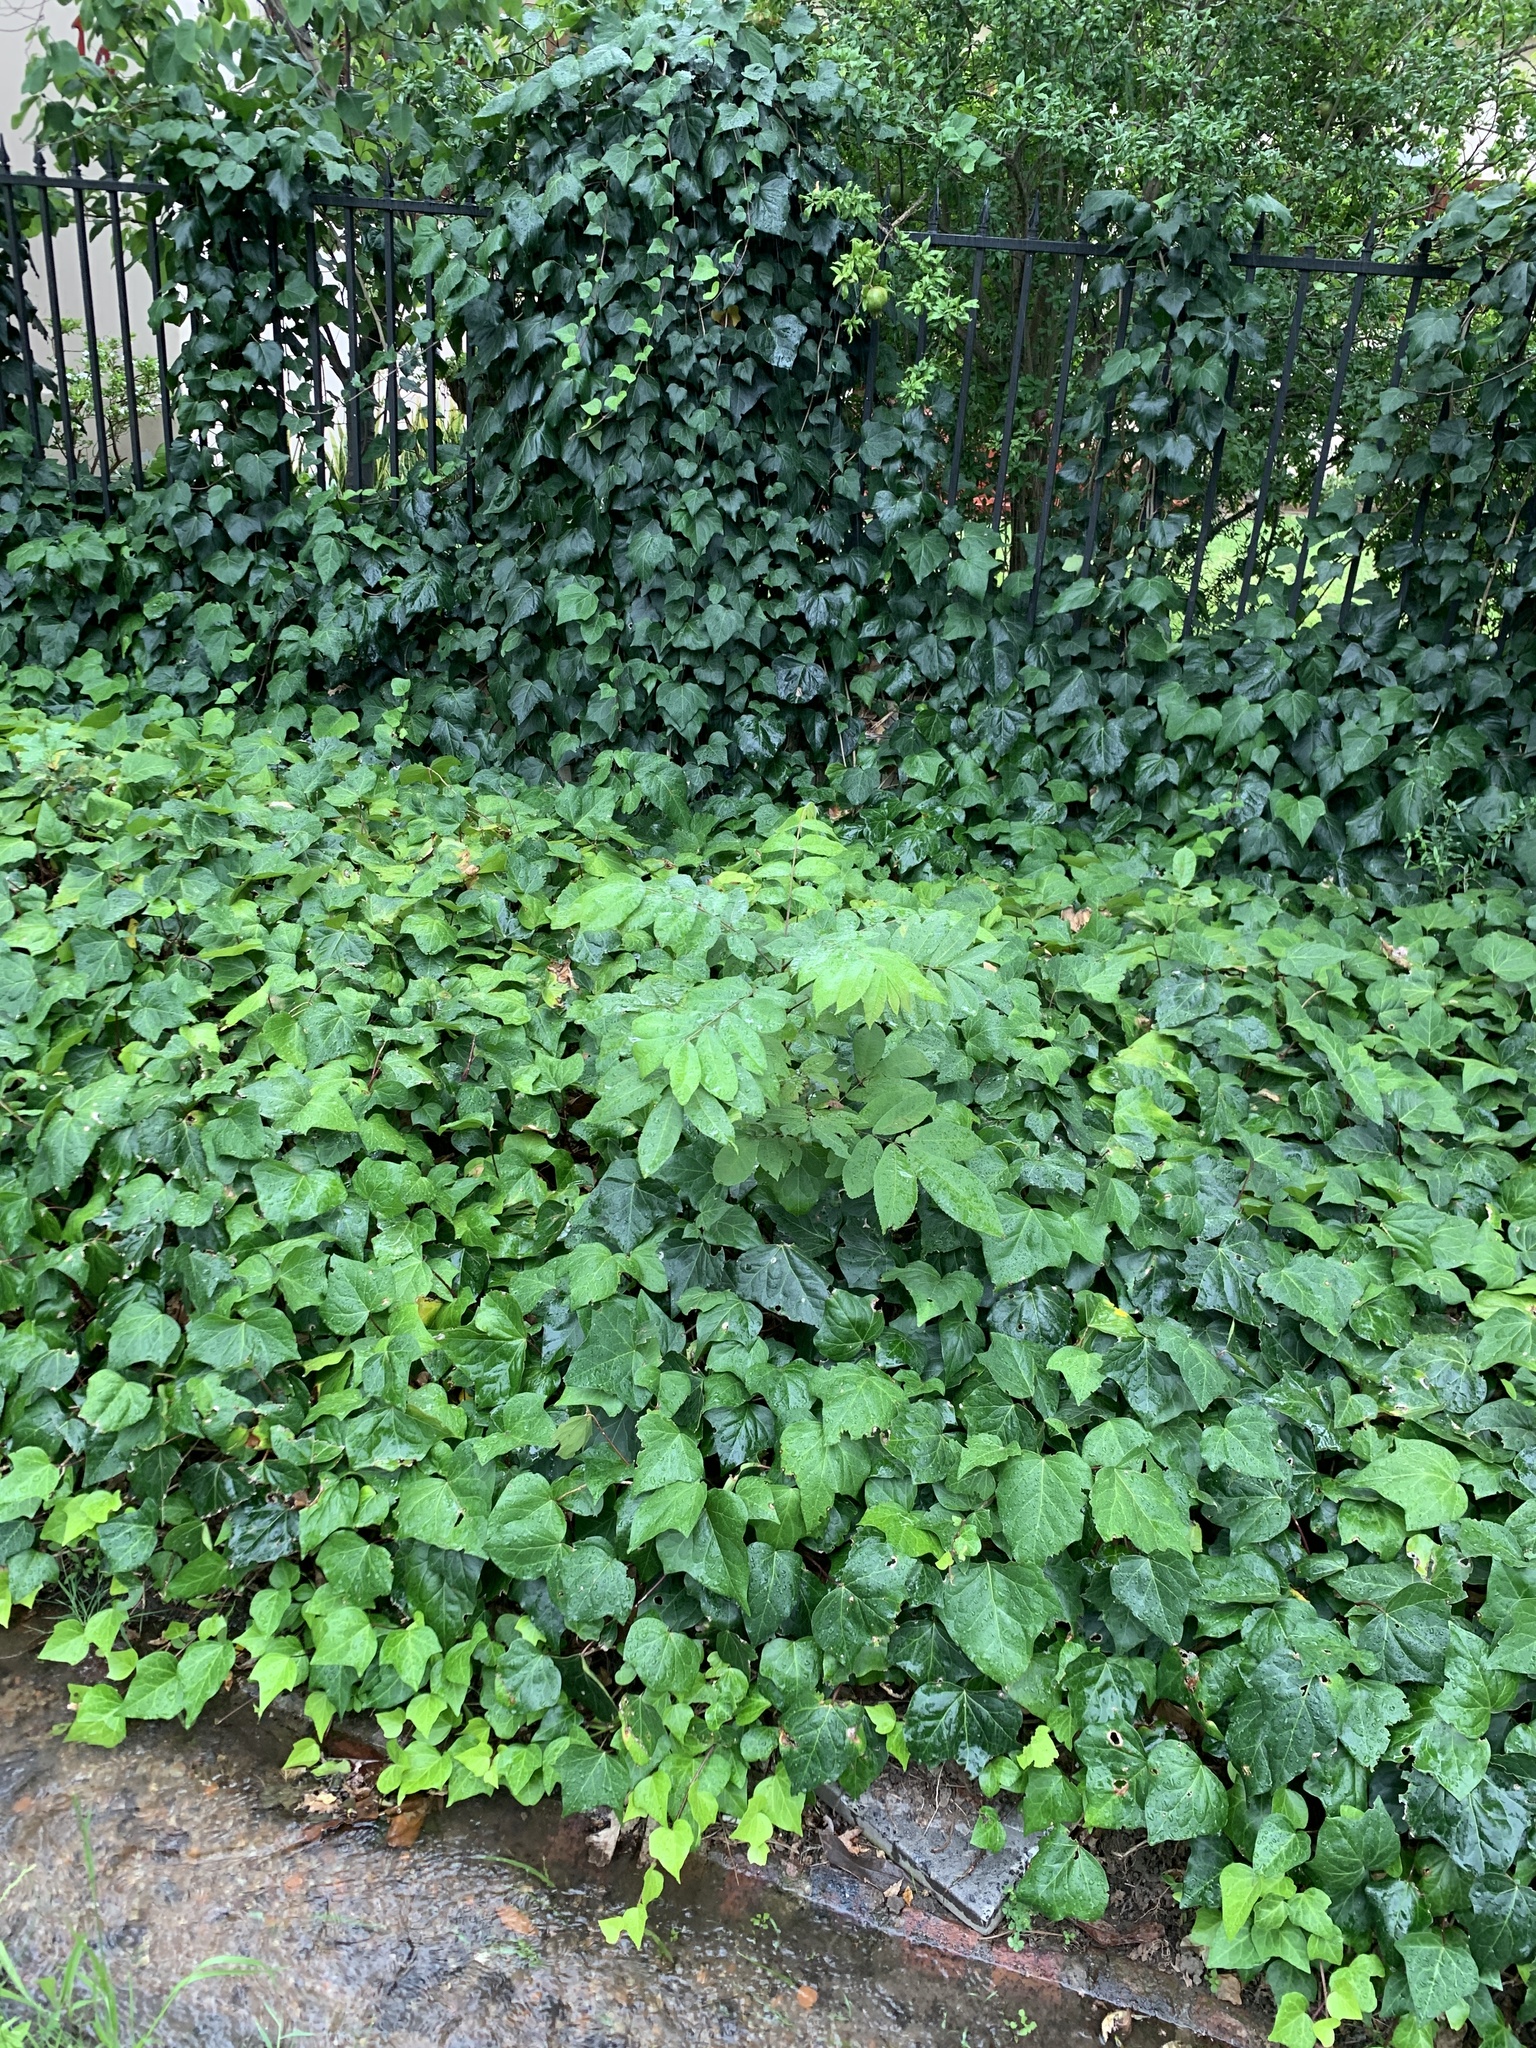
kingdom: Plantae
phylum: Tracheophyta
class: Magnoliopsida
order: Fagales
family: Juglandaceae
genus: Carya
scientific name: Carya illinoinensis
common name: Pecan
